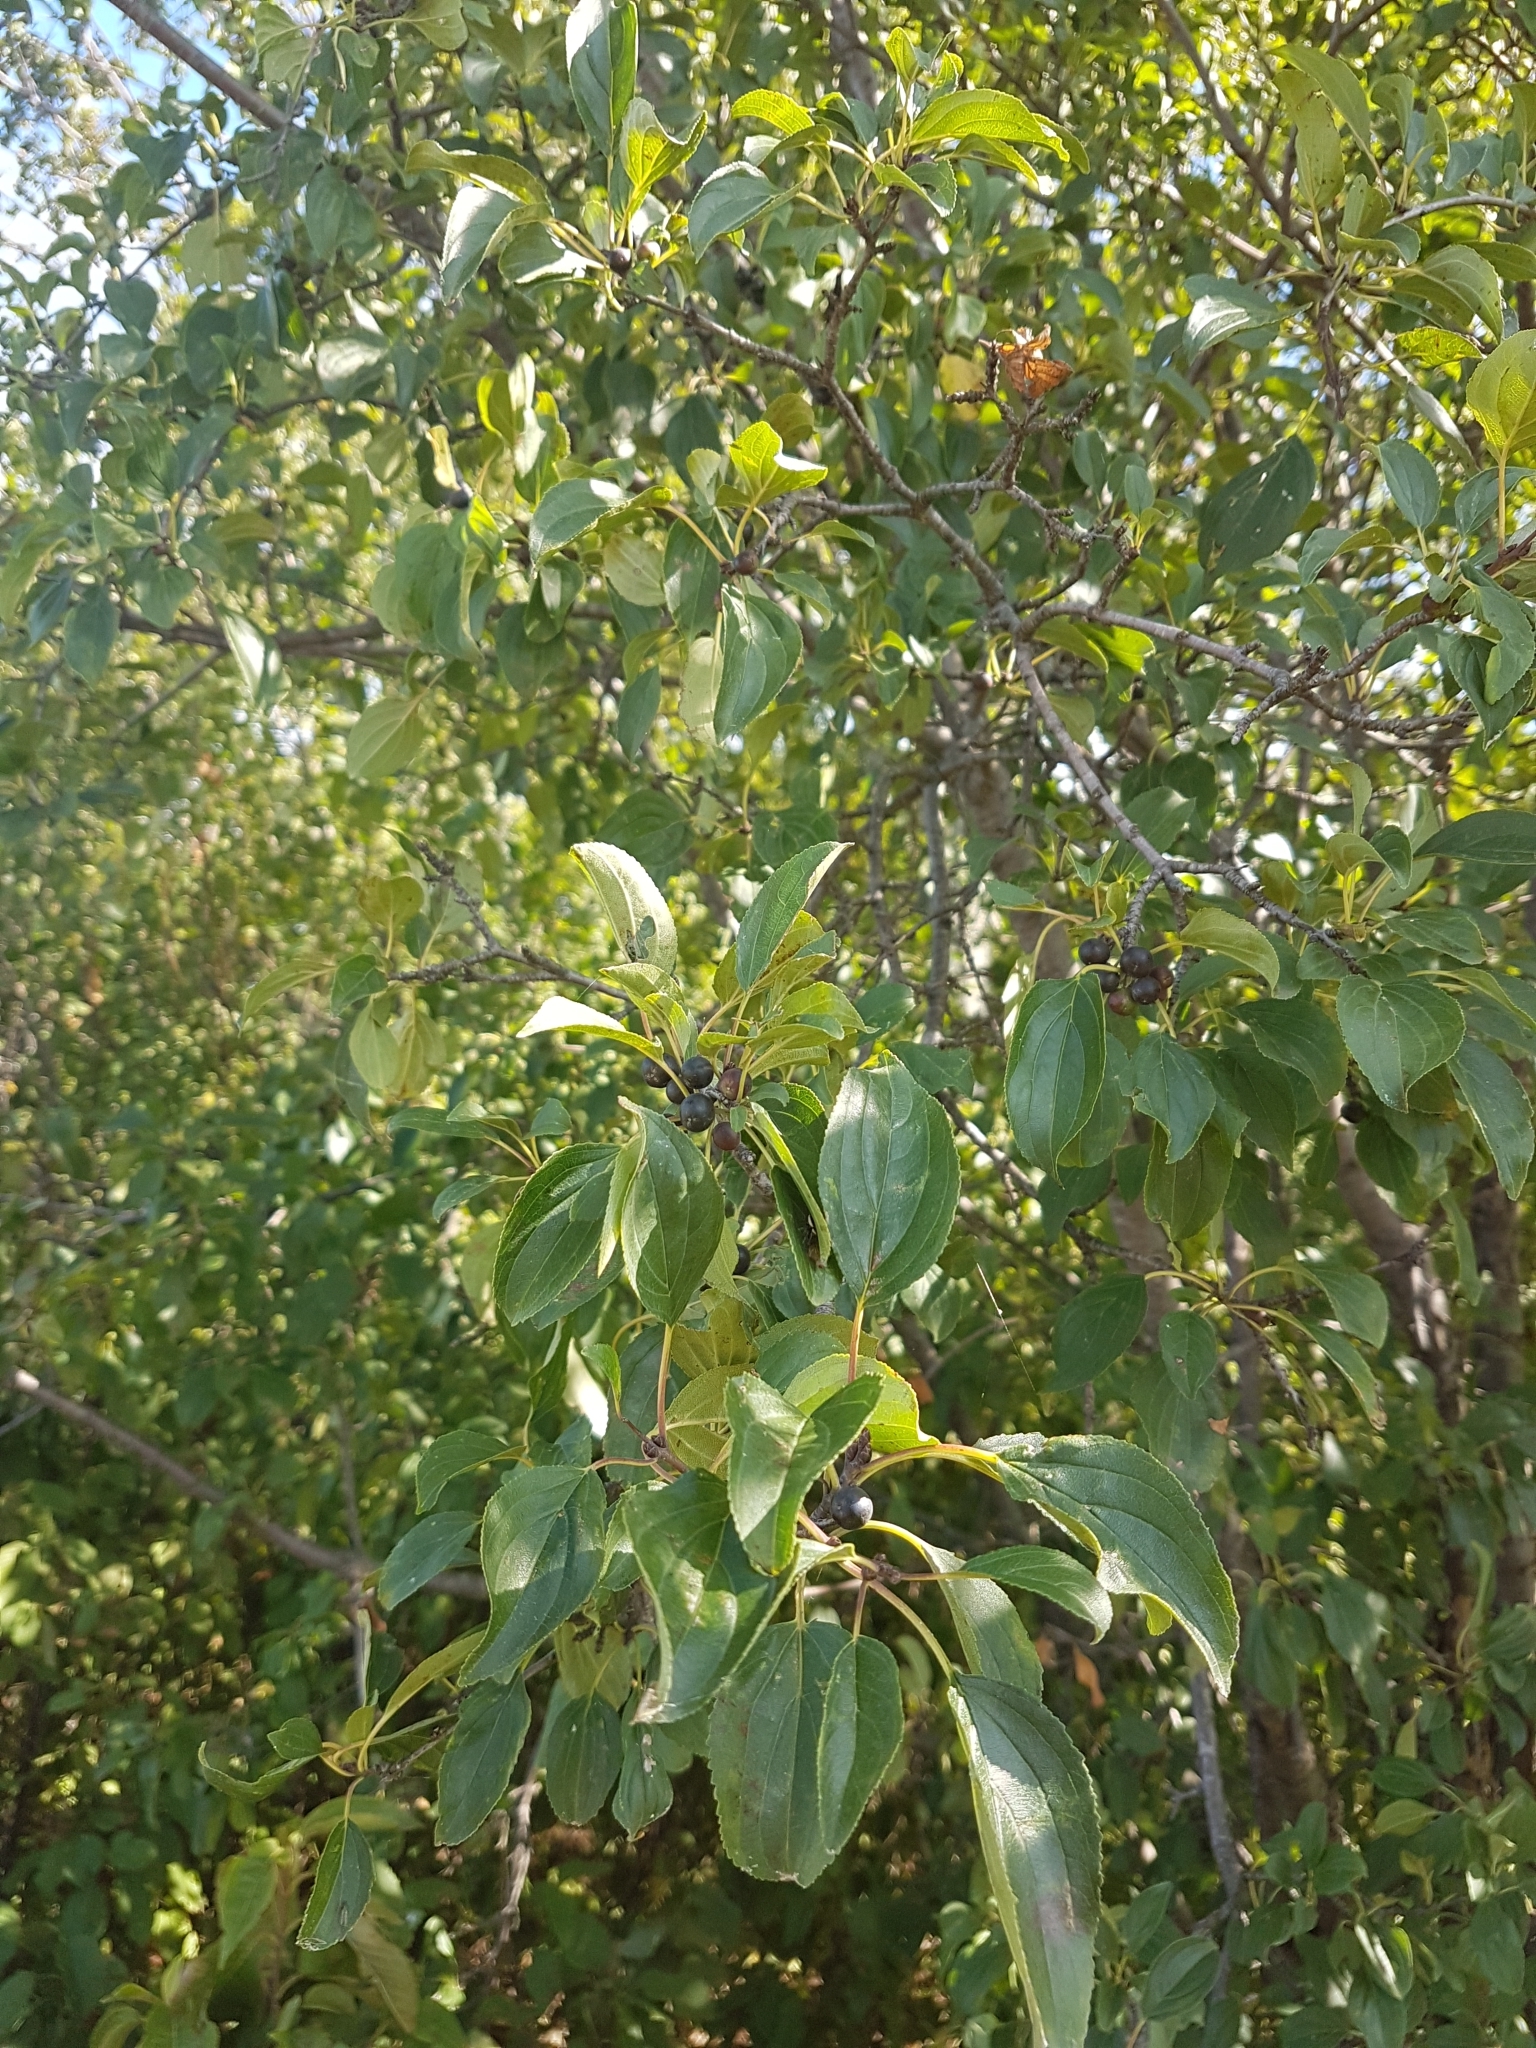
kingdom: Plantae
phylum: Tracheophyta
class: Magnoliopsida
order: Rosales
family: Rhamnaceae
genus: Rhamnus
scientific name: Rhamnus cathartica
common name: Common buckthorn
